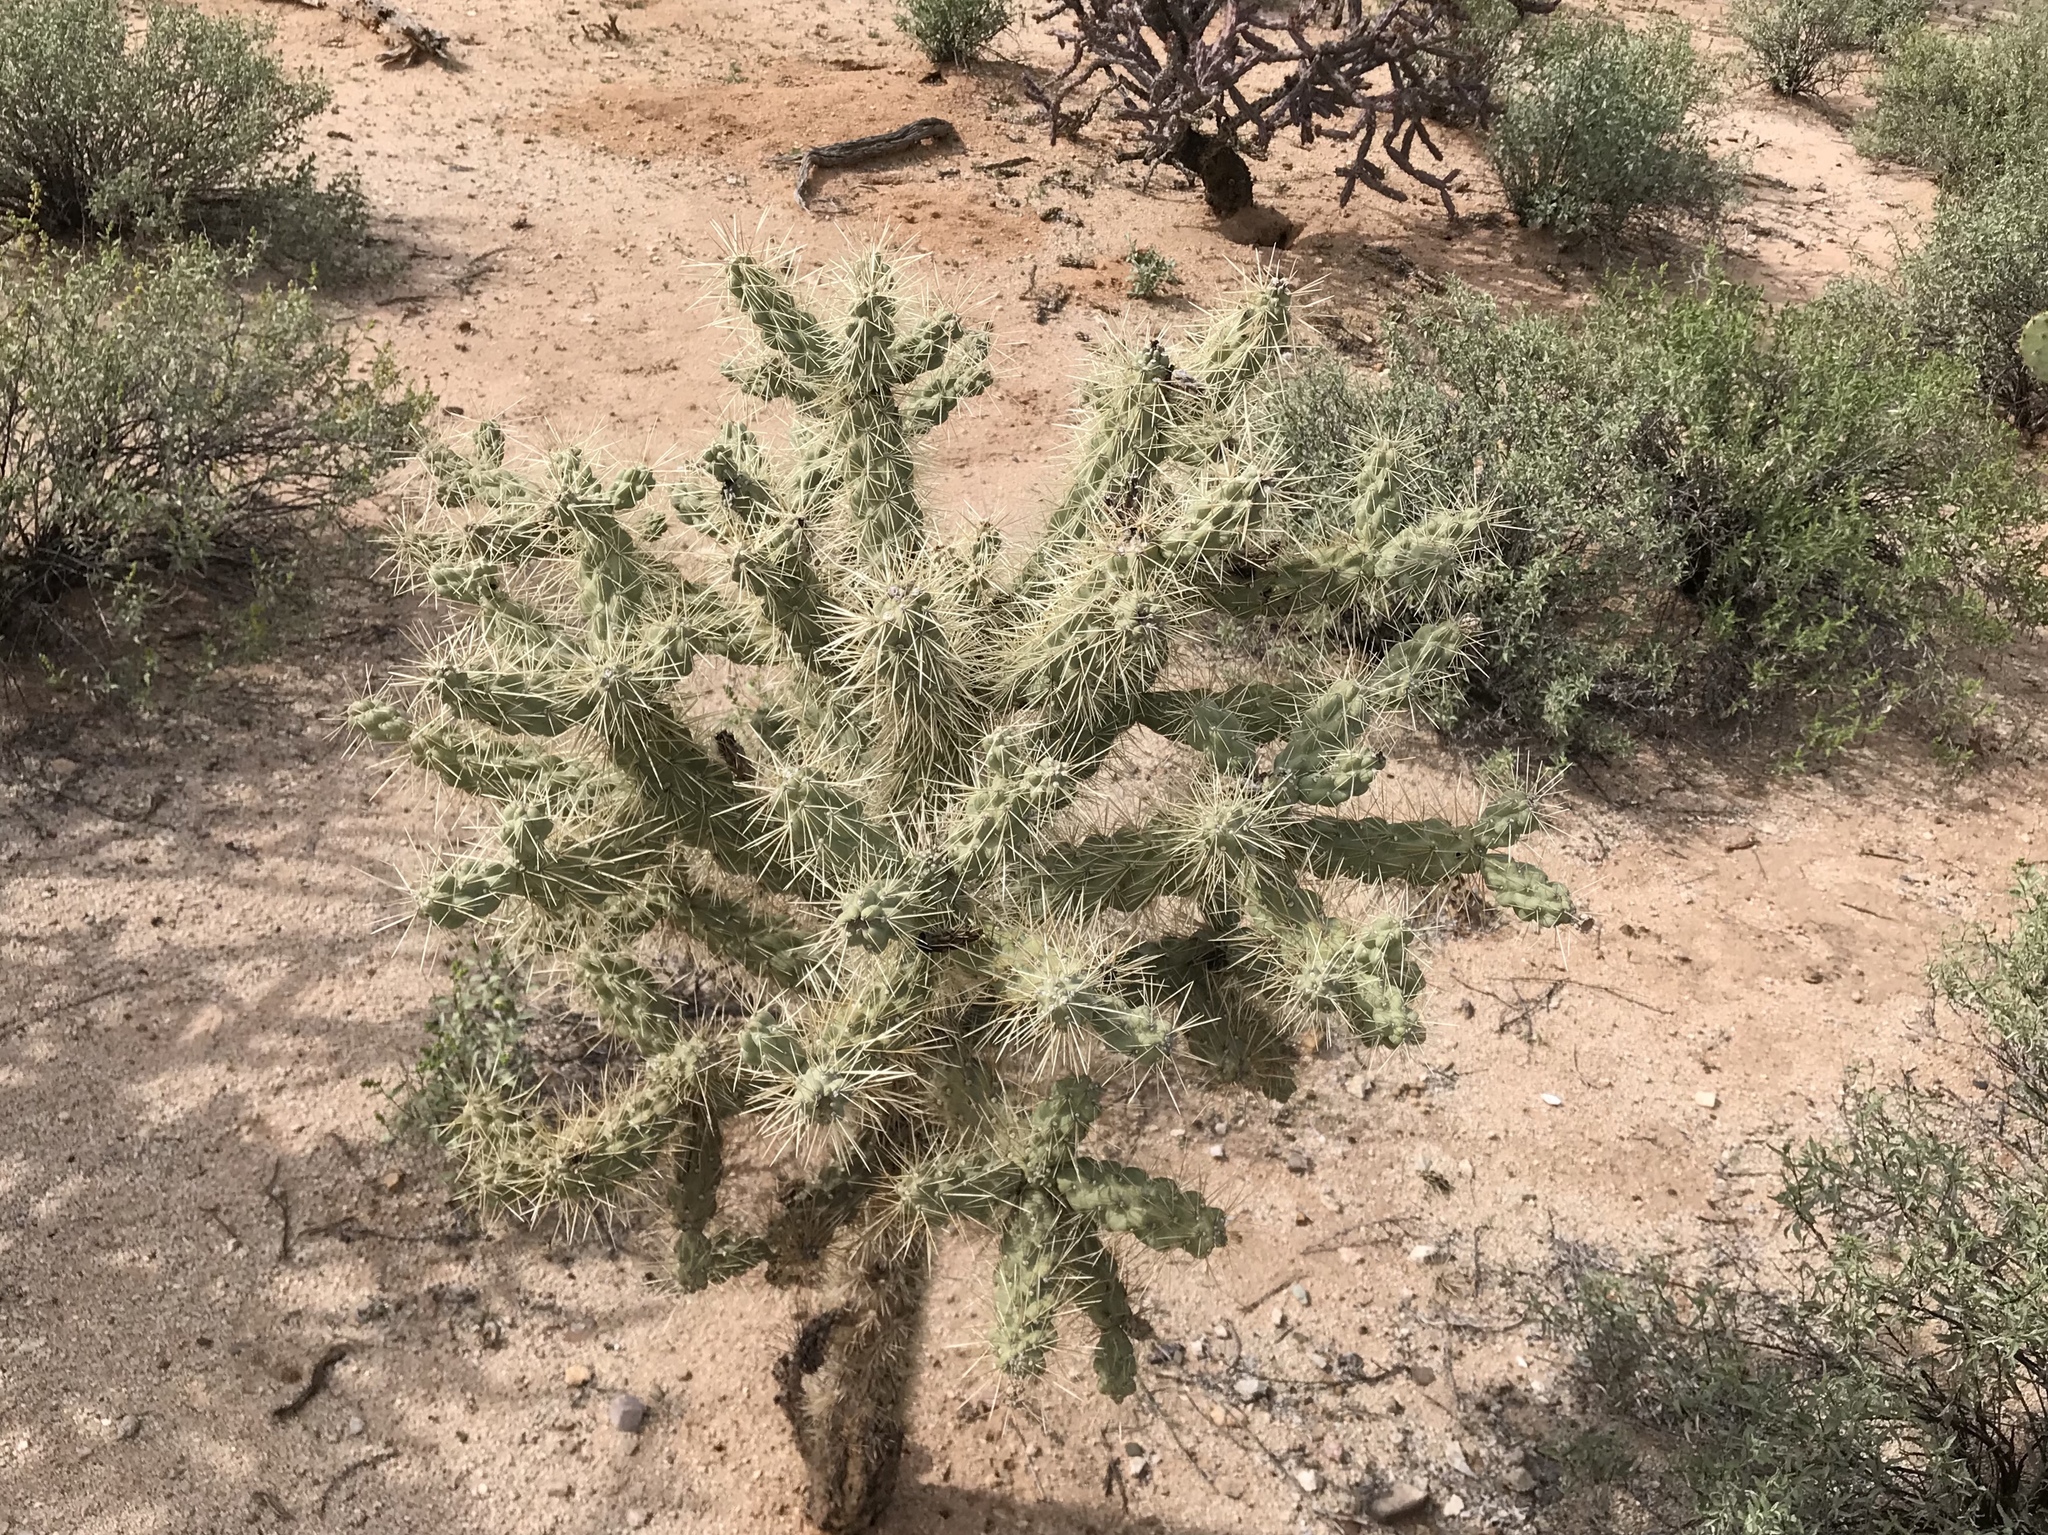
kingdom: Plantae
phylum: Tracheophyta
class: Magnoliopsida
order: Caryophyllales
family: Cactaceae
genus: Cylindropuntia
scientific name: Cylindropuntia fulgida
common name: Jumping cholla
